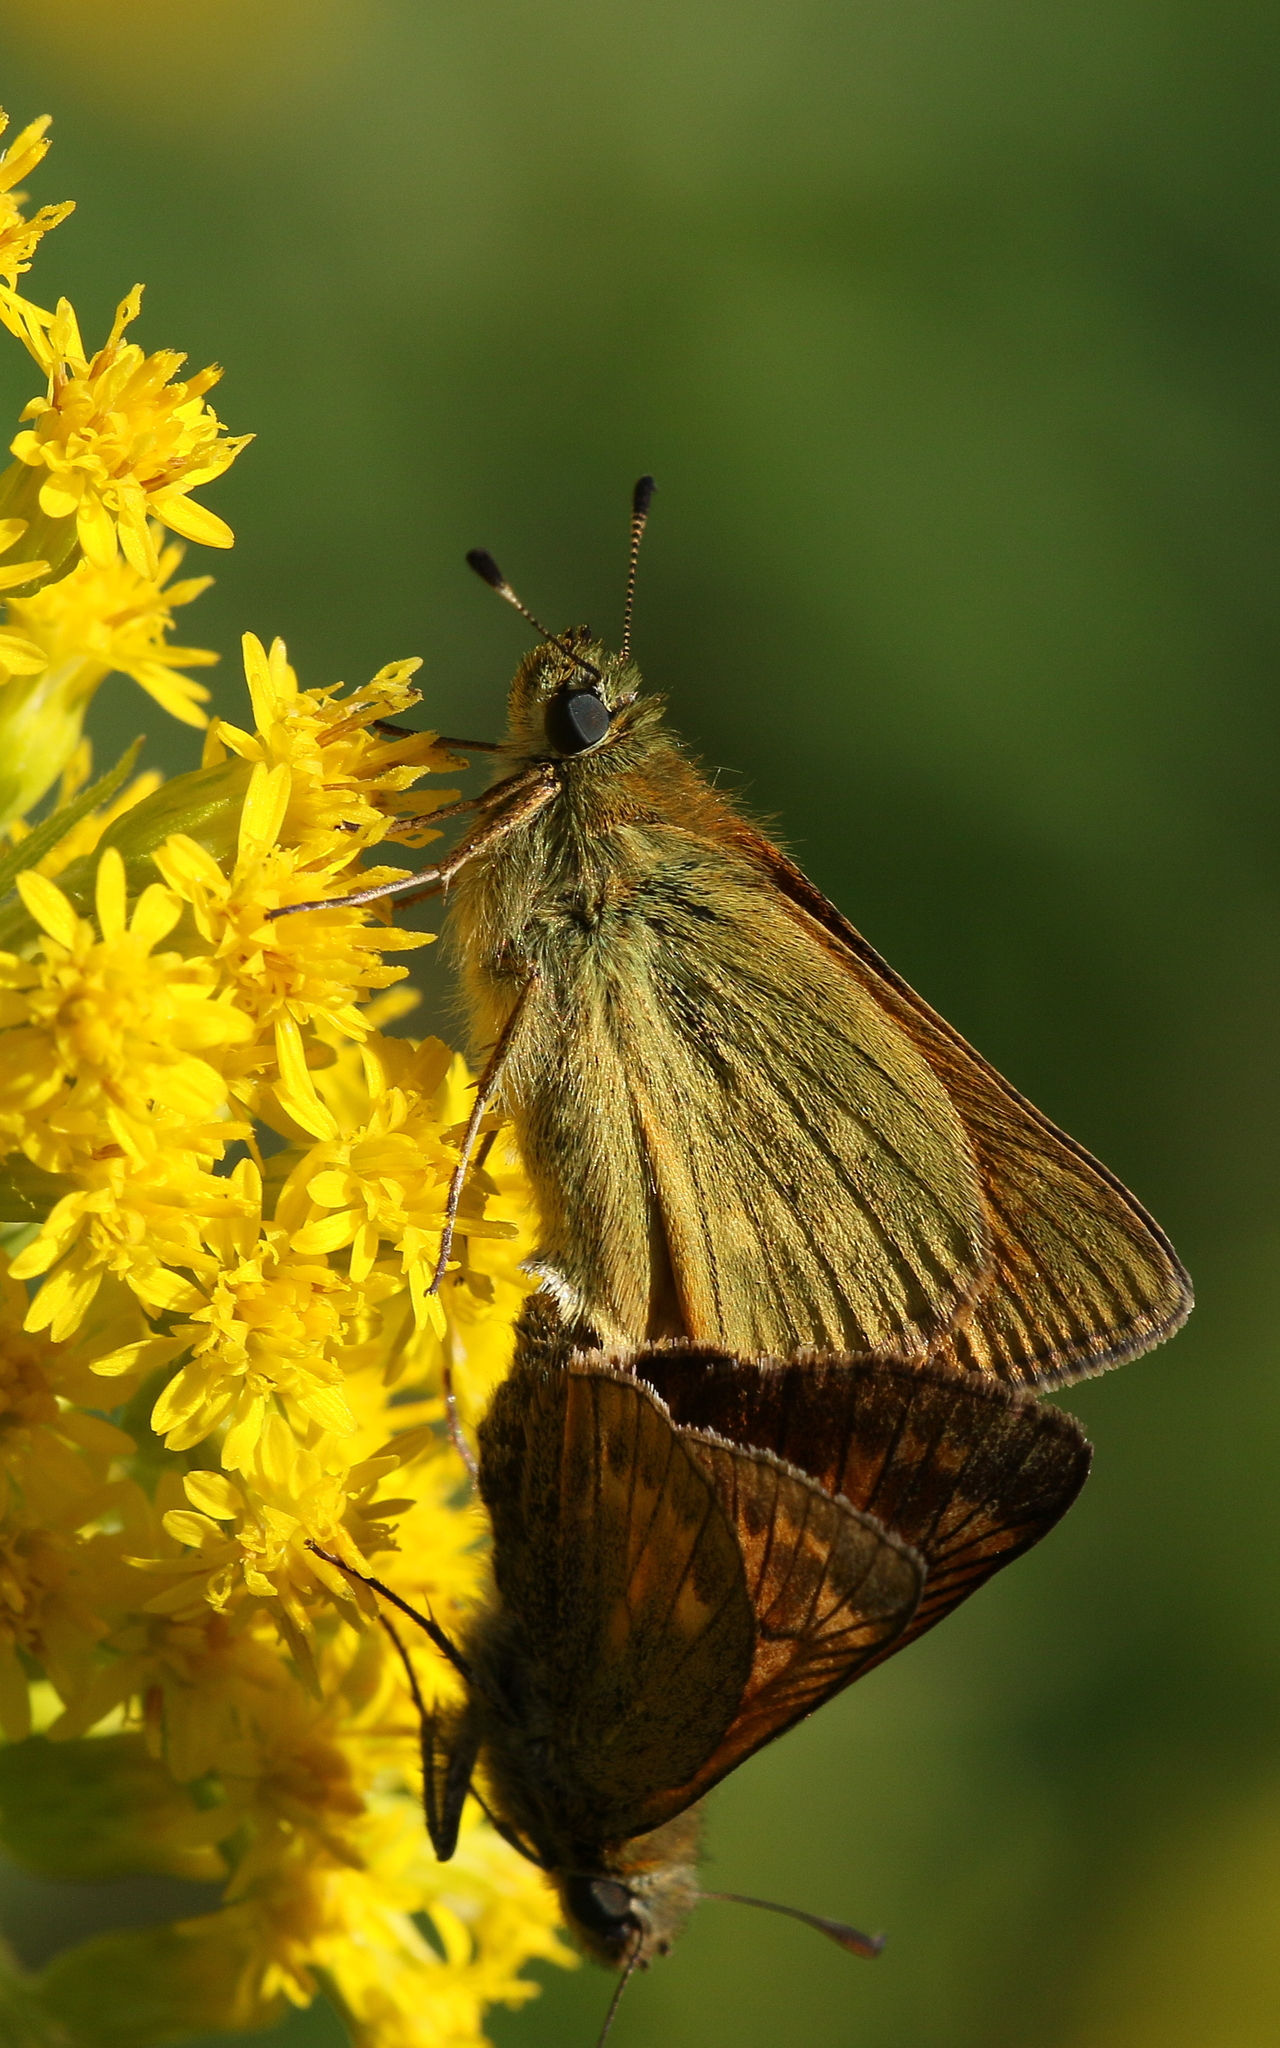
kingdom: Animalia
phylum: Arthropoda
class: Insecta
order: Lepidoptera
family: Hesperiidae
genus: Ochlodes
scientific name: Ochlodes venata
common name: Large skipper
